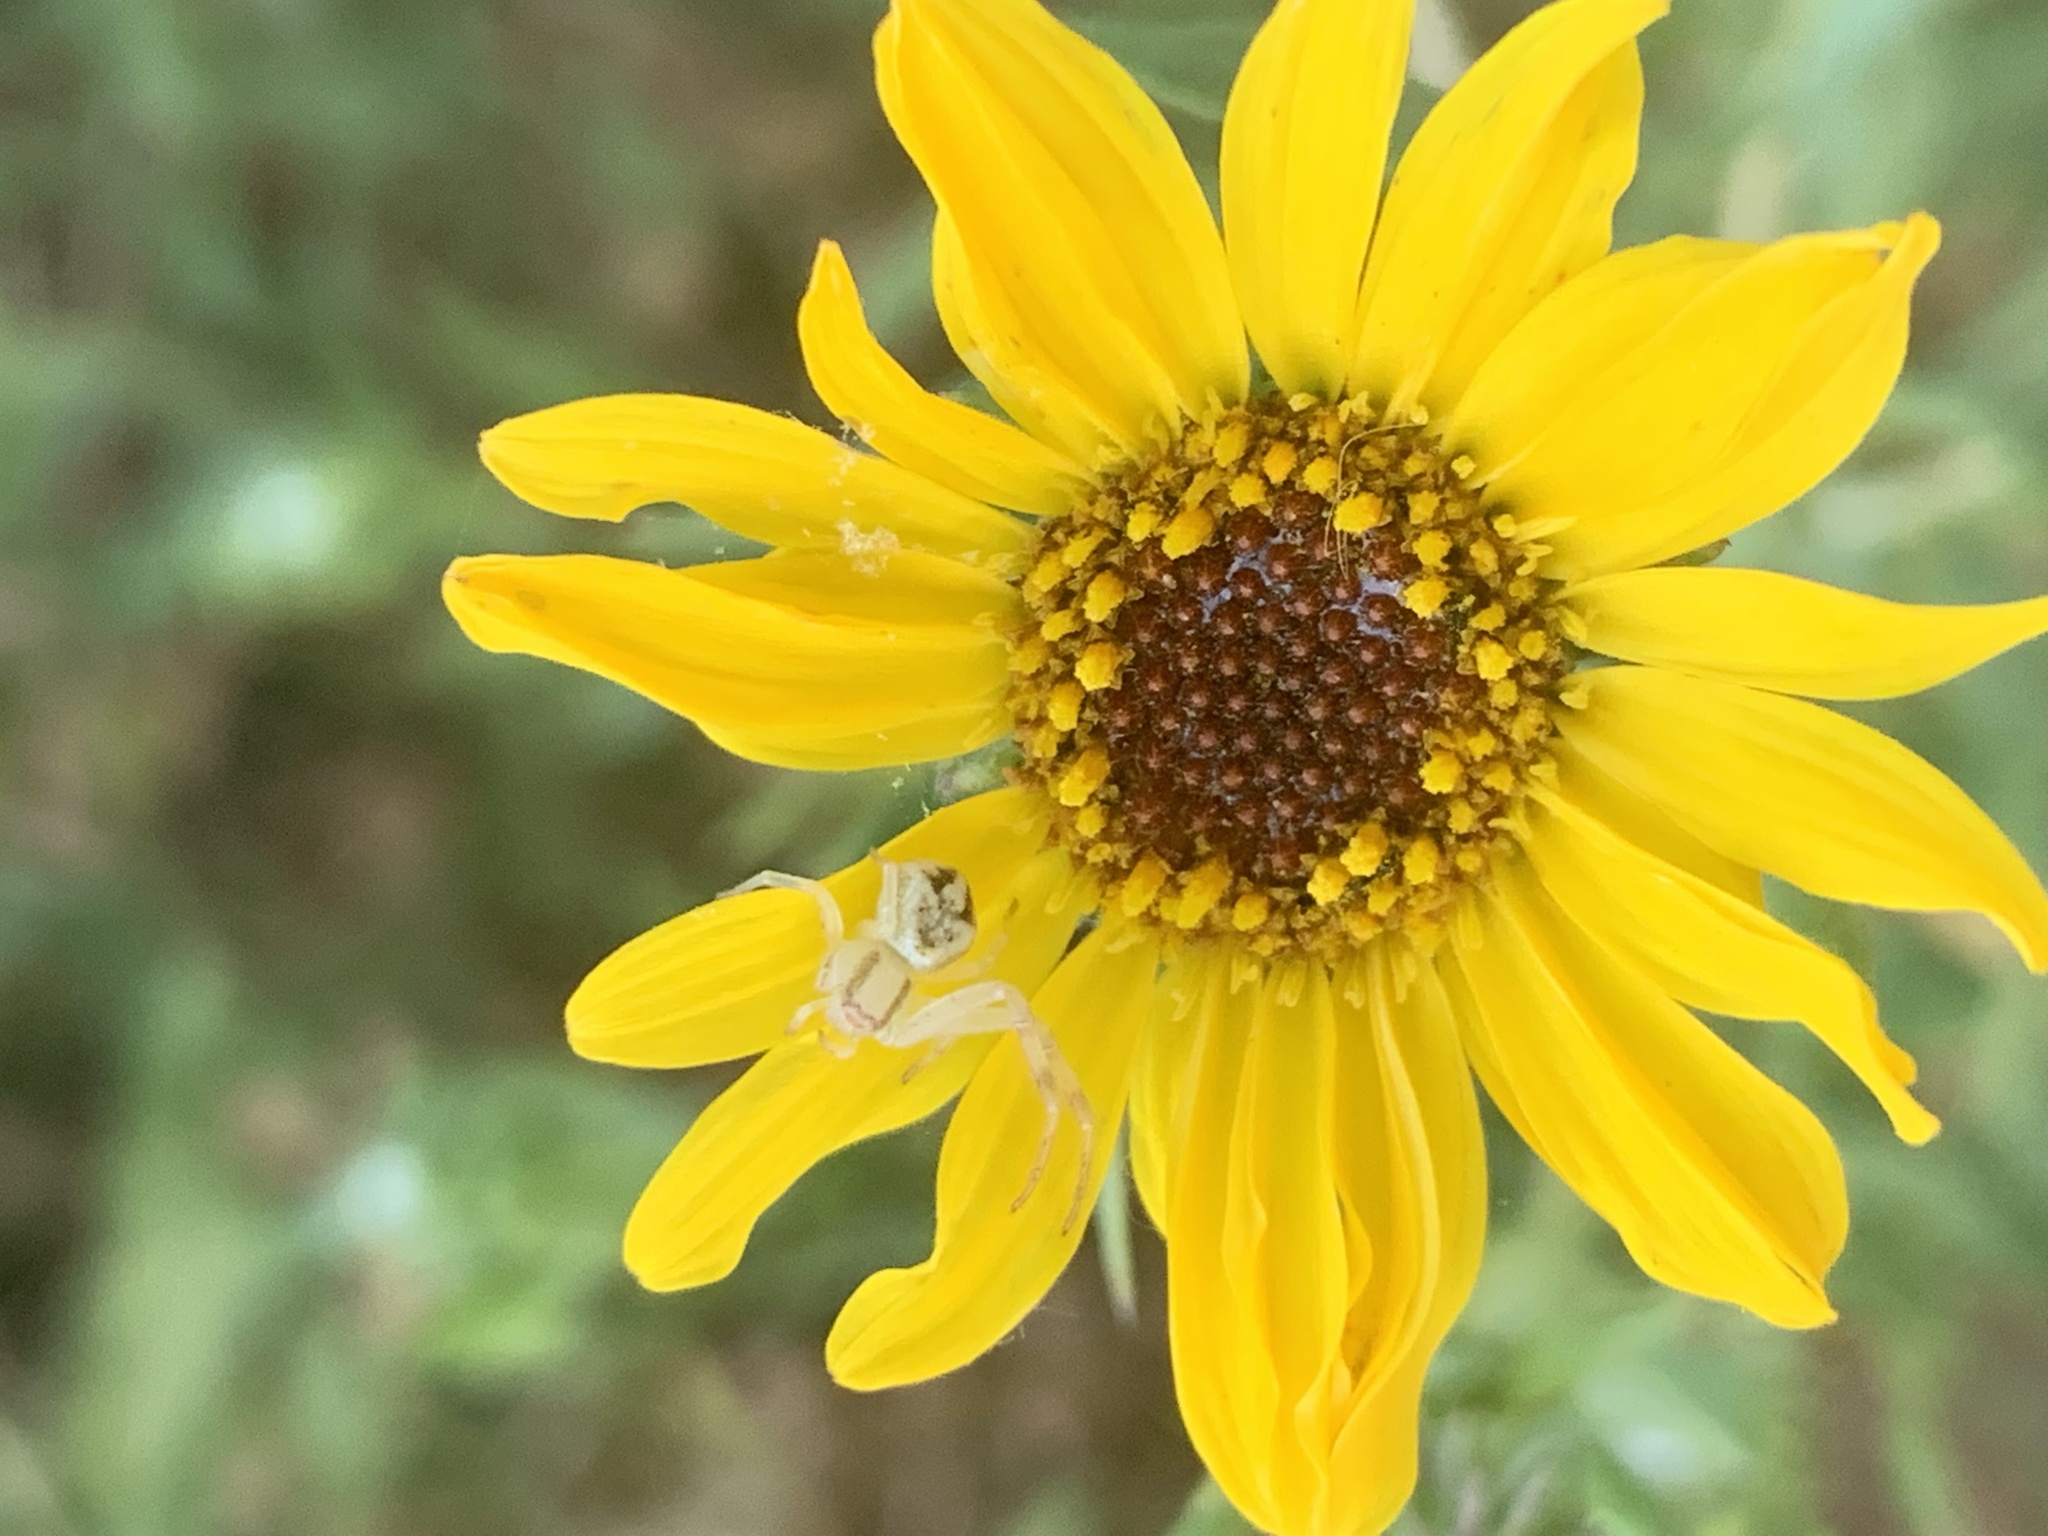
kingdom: Animalia
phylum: Arthropoda
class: Arachnida
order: Araneae
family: Thomisidae
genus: Misumenops
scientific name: Misumenops
